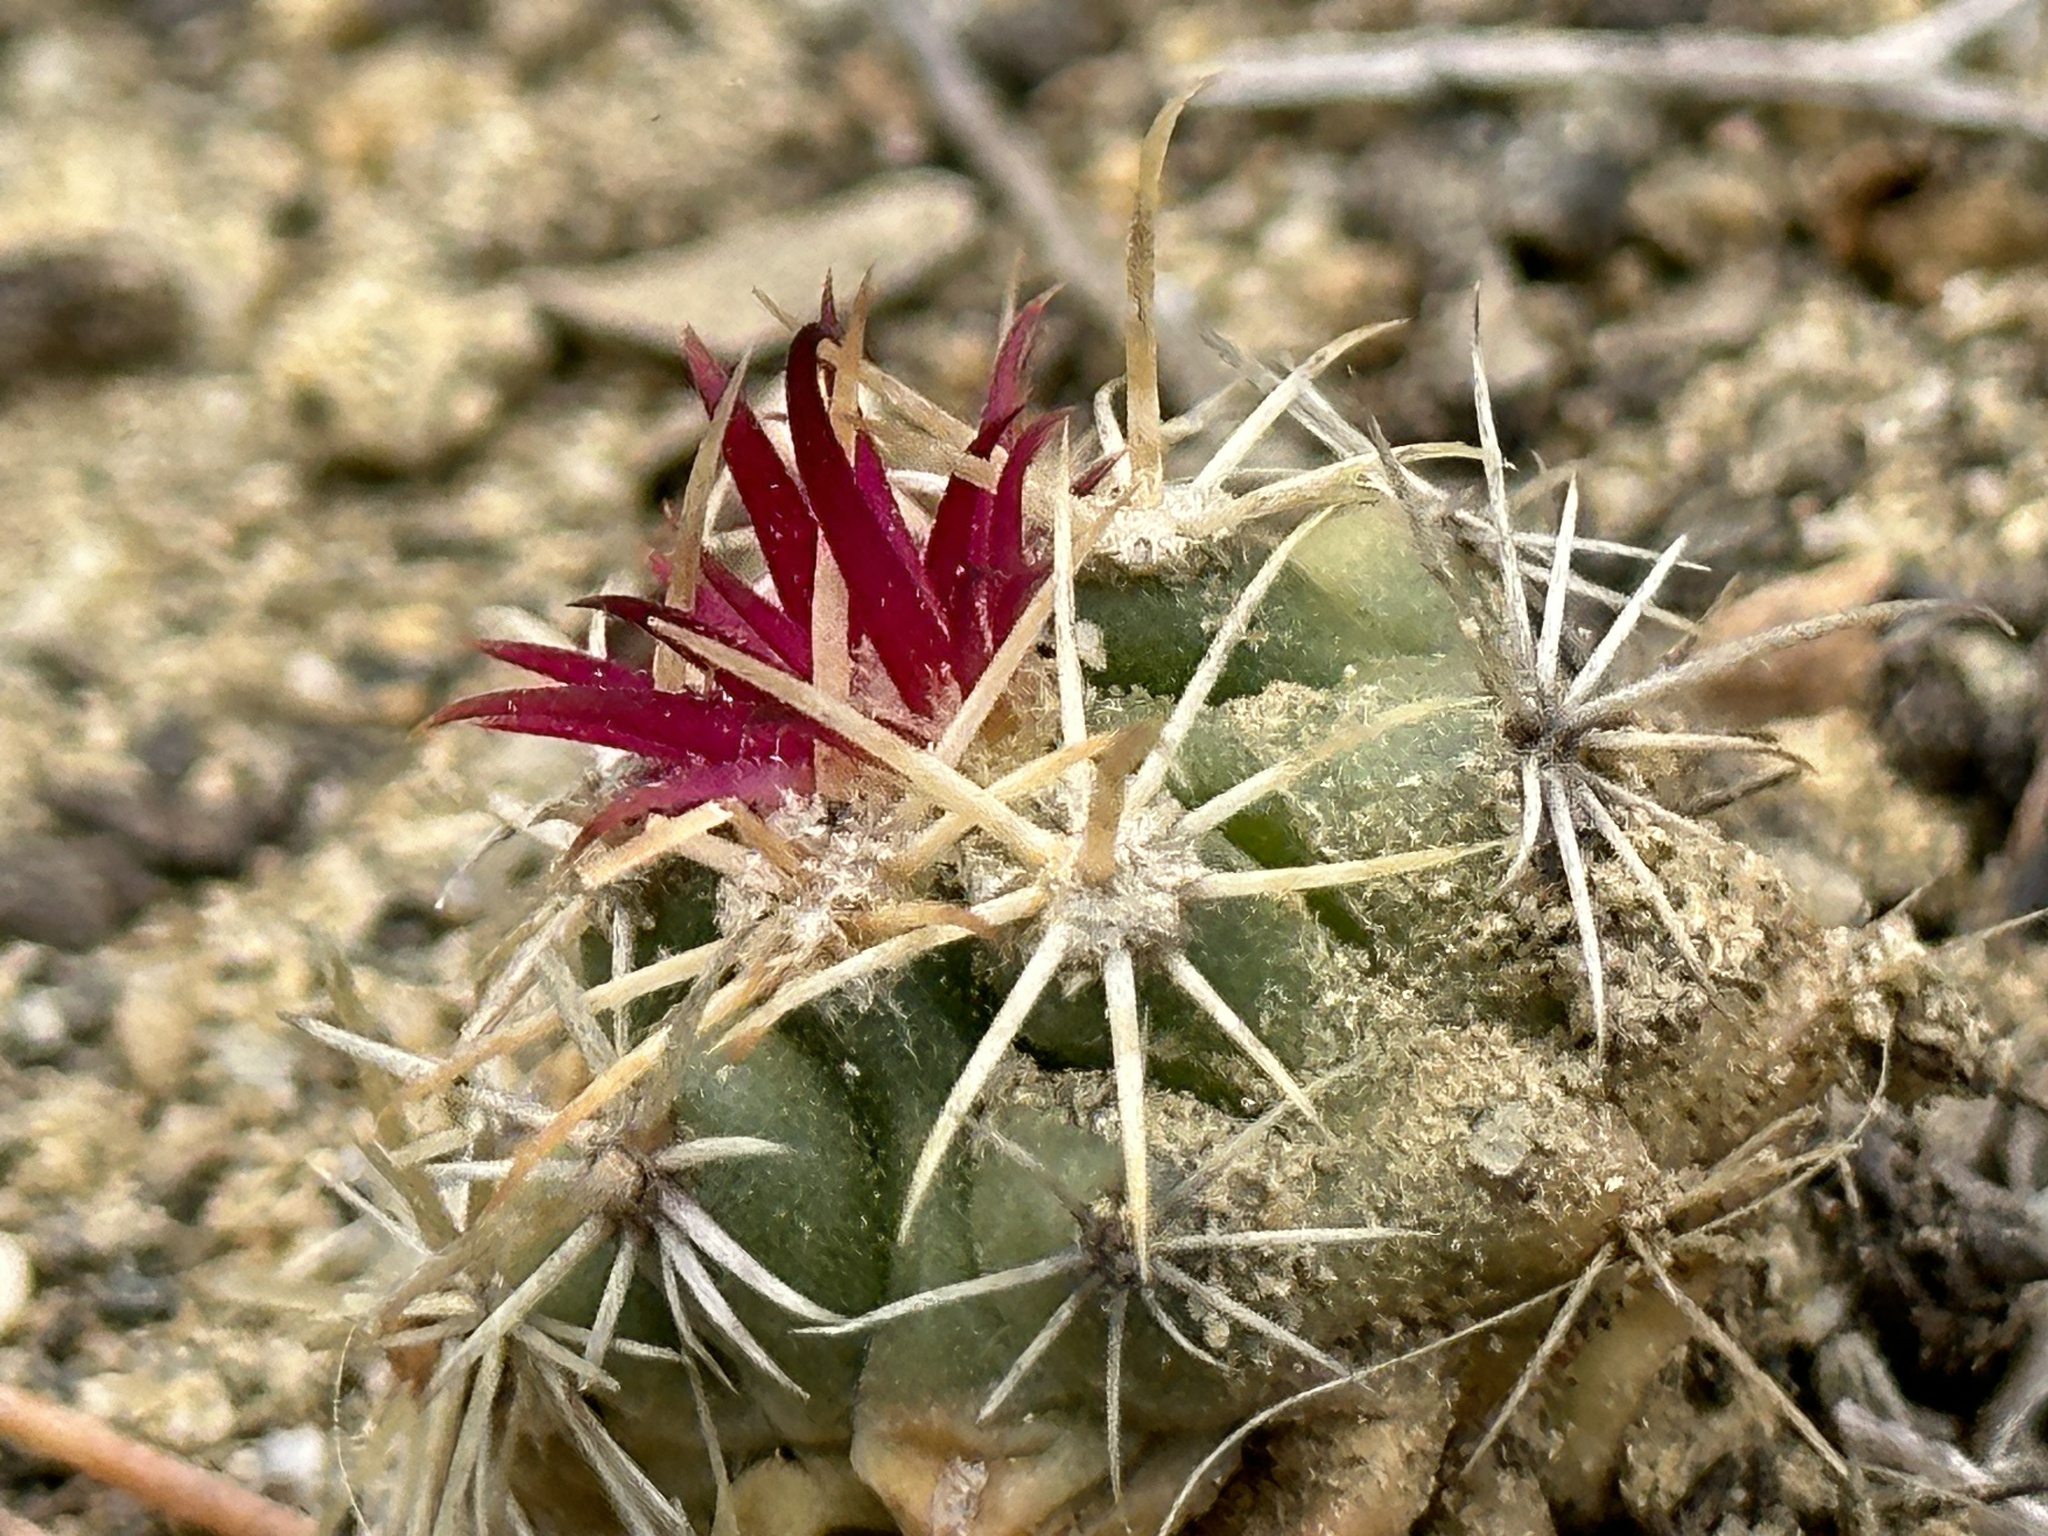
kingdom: Plantae
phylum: Tracheophyta
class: Magnoliopsida
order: Caryophyllales
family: Cactaceae
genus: Ferocactus
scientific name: Ferocactus viridescens
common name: San diego barrel cactus
